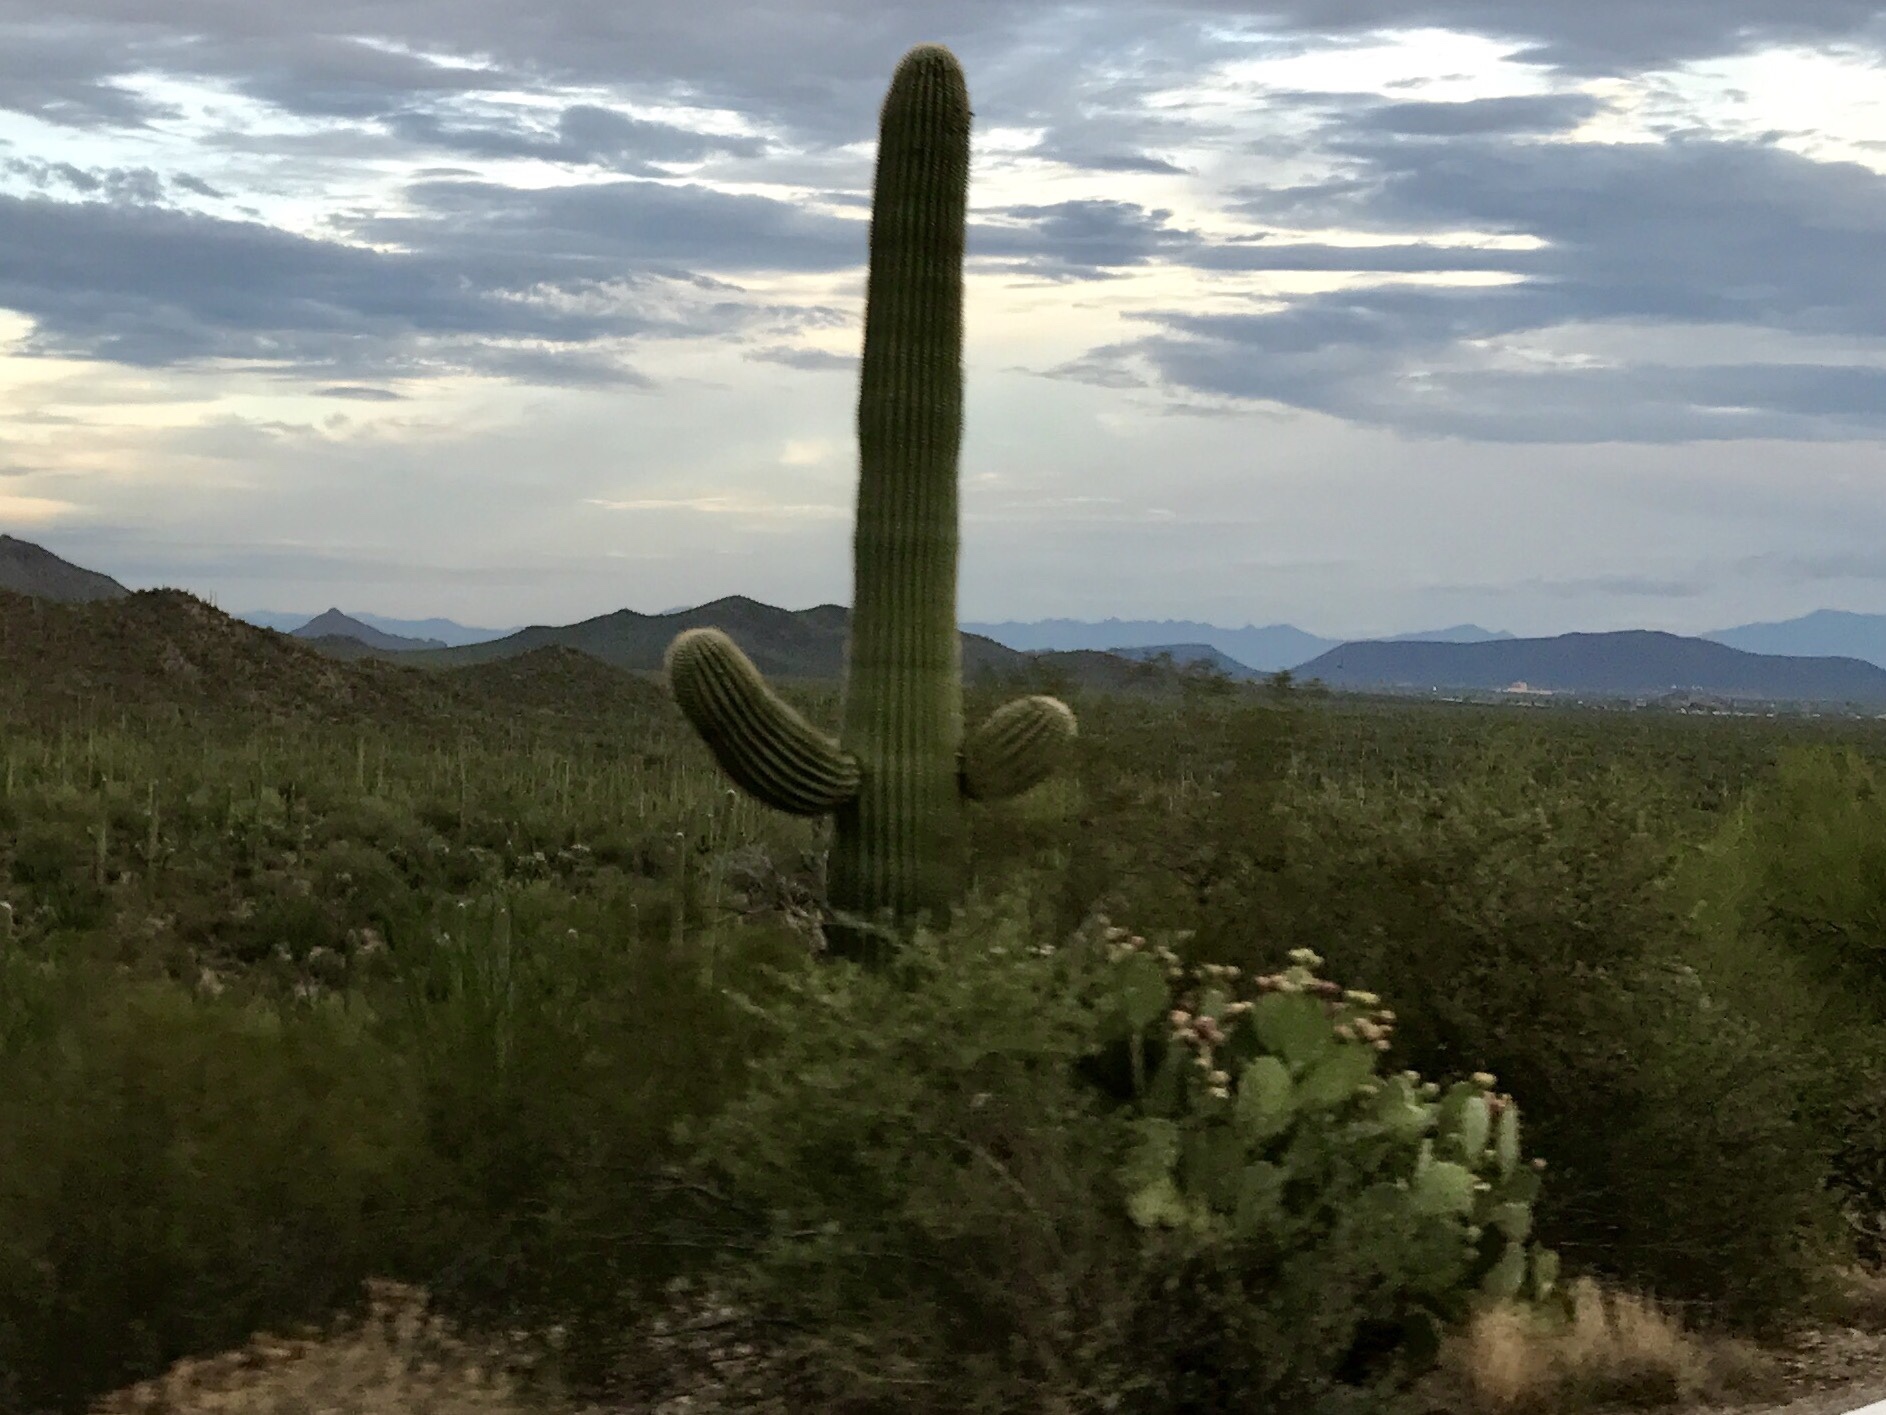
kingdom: Plantae
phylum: Tracheophyta
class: Magnoliopsida
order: Caryophyllales
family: Cactaceae
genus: Carnegiea
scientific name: Carnegiea gigantea
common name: Saguaro
